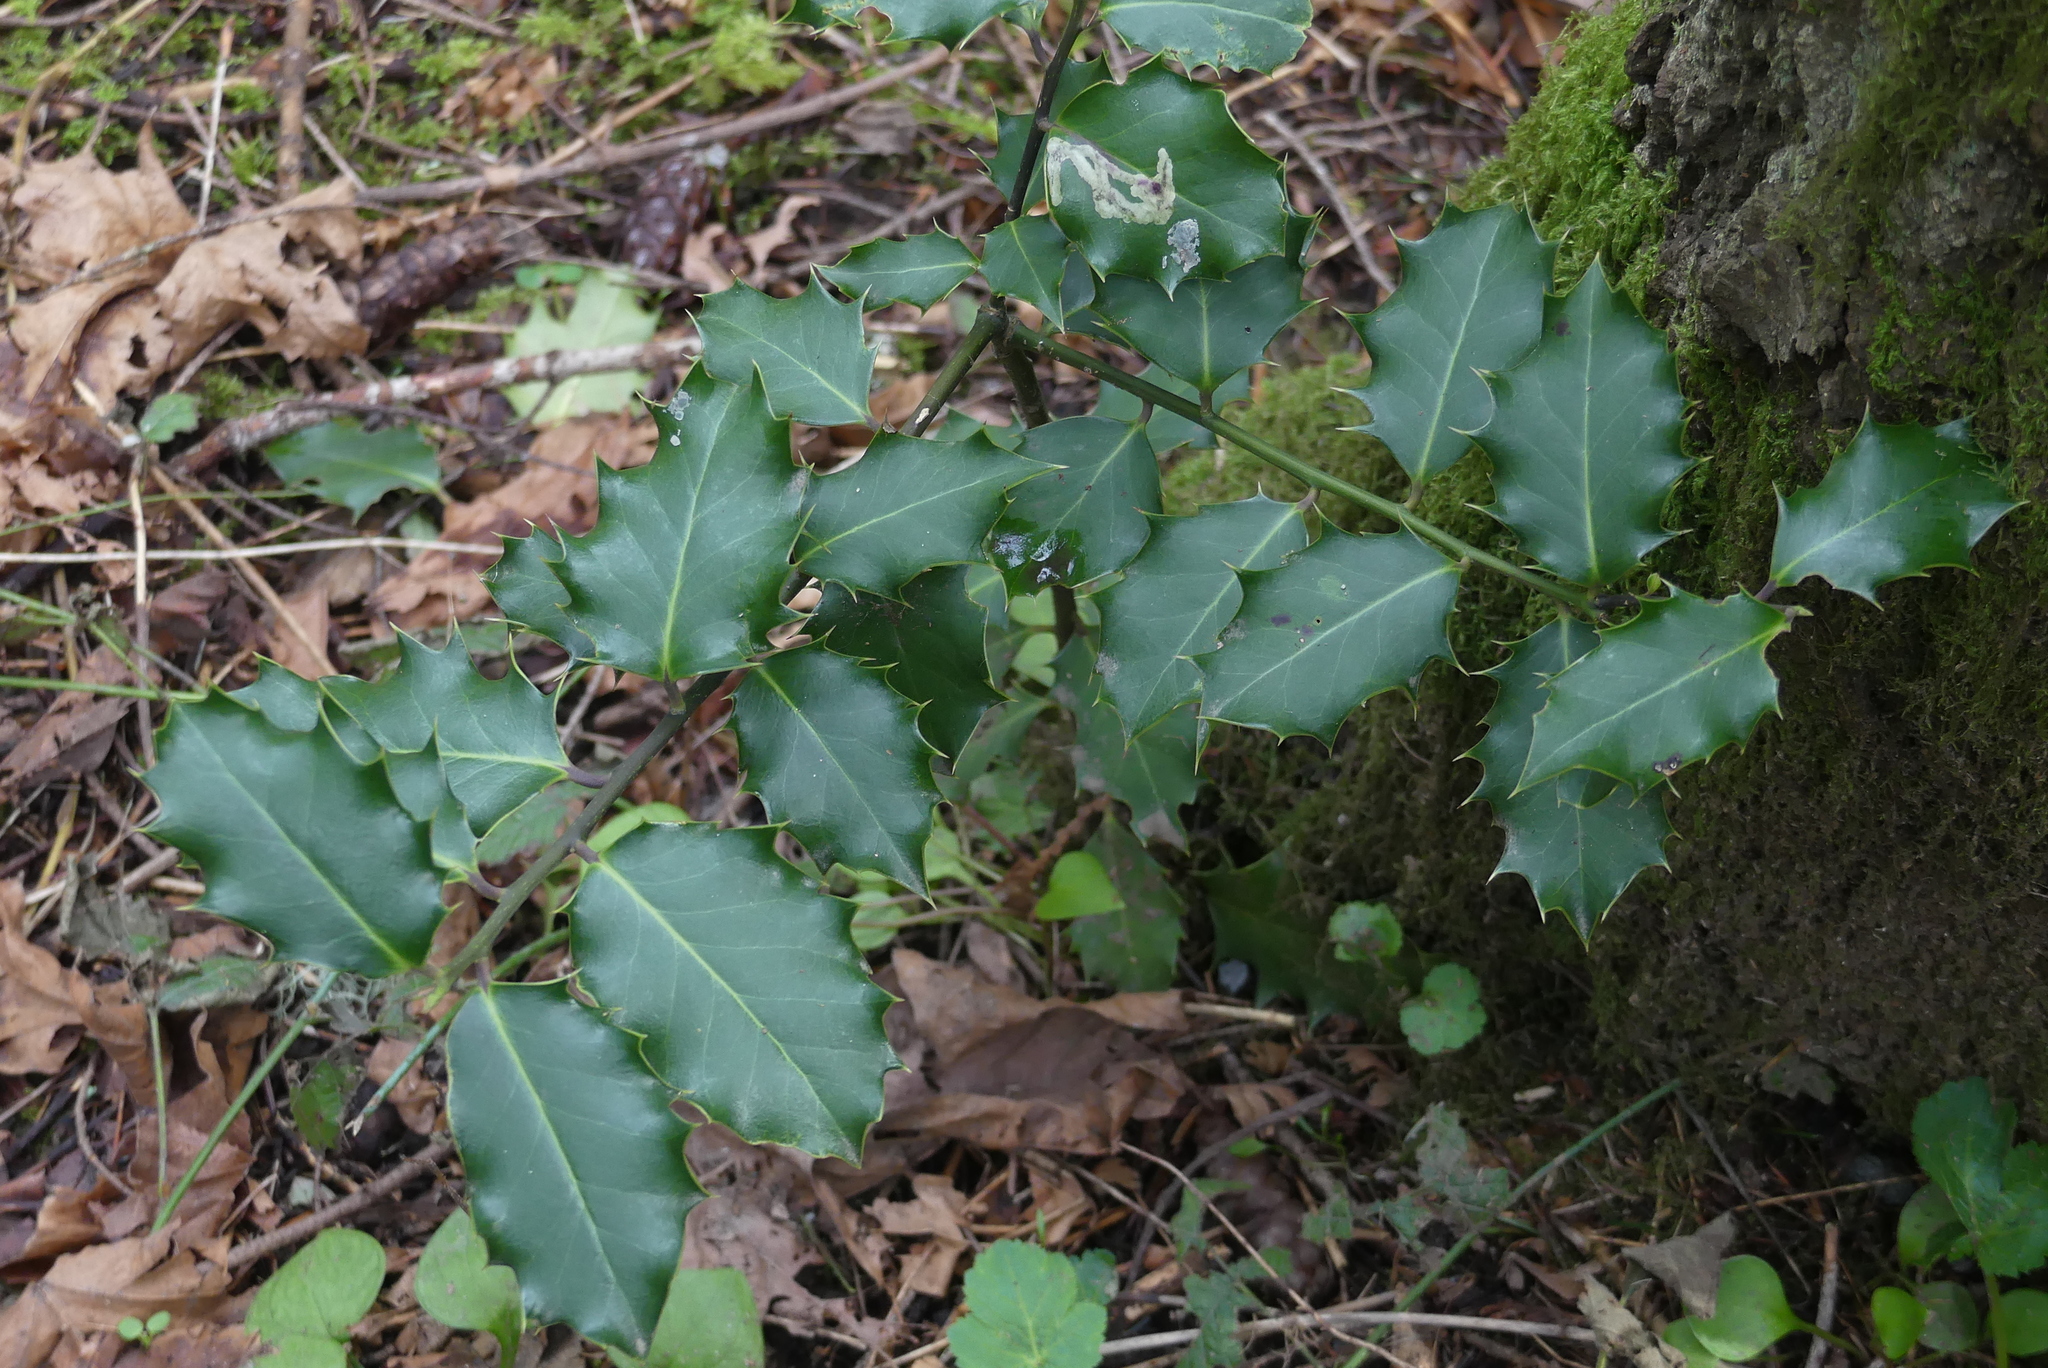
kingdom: Plantae
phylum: Tracheophyta
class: Magnoliopsida
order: Aquifoliales
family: Aquifoliaceae
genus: Ilex
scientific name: Ilex aquifolium
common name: English holly
